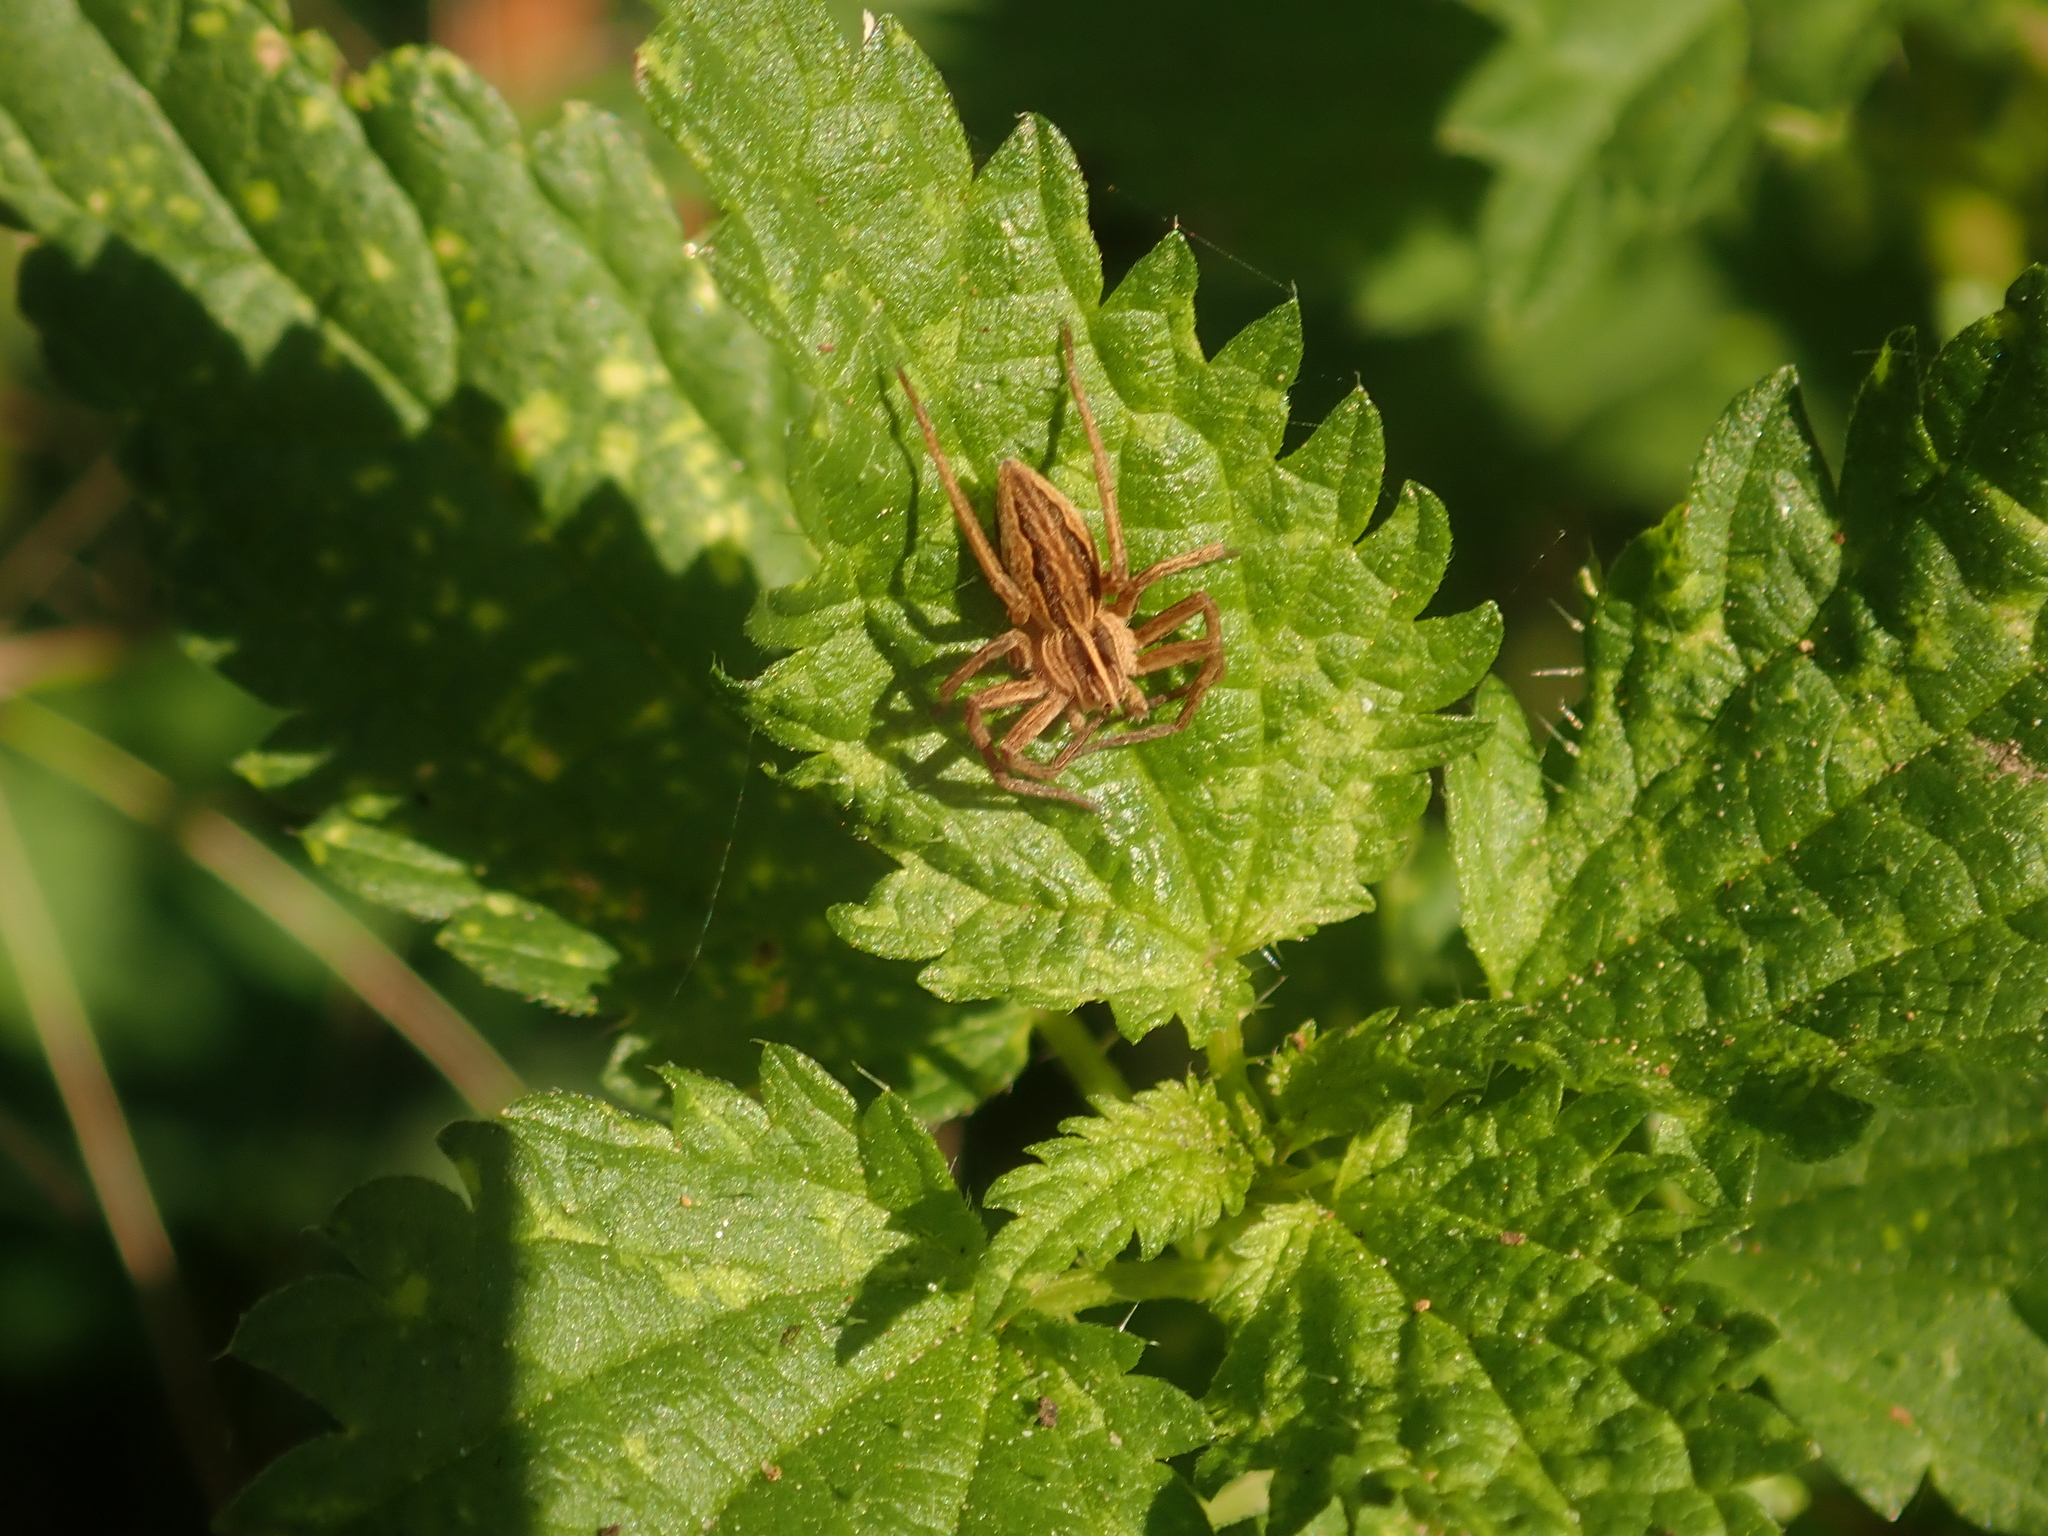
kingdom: Animalia
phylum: Arthropoda
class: Arachnida
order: Araneae
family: Pisauridae
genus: Pisaura
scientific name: Pisaura mirabilis
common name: Tent spider
